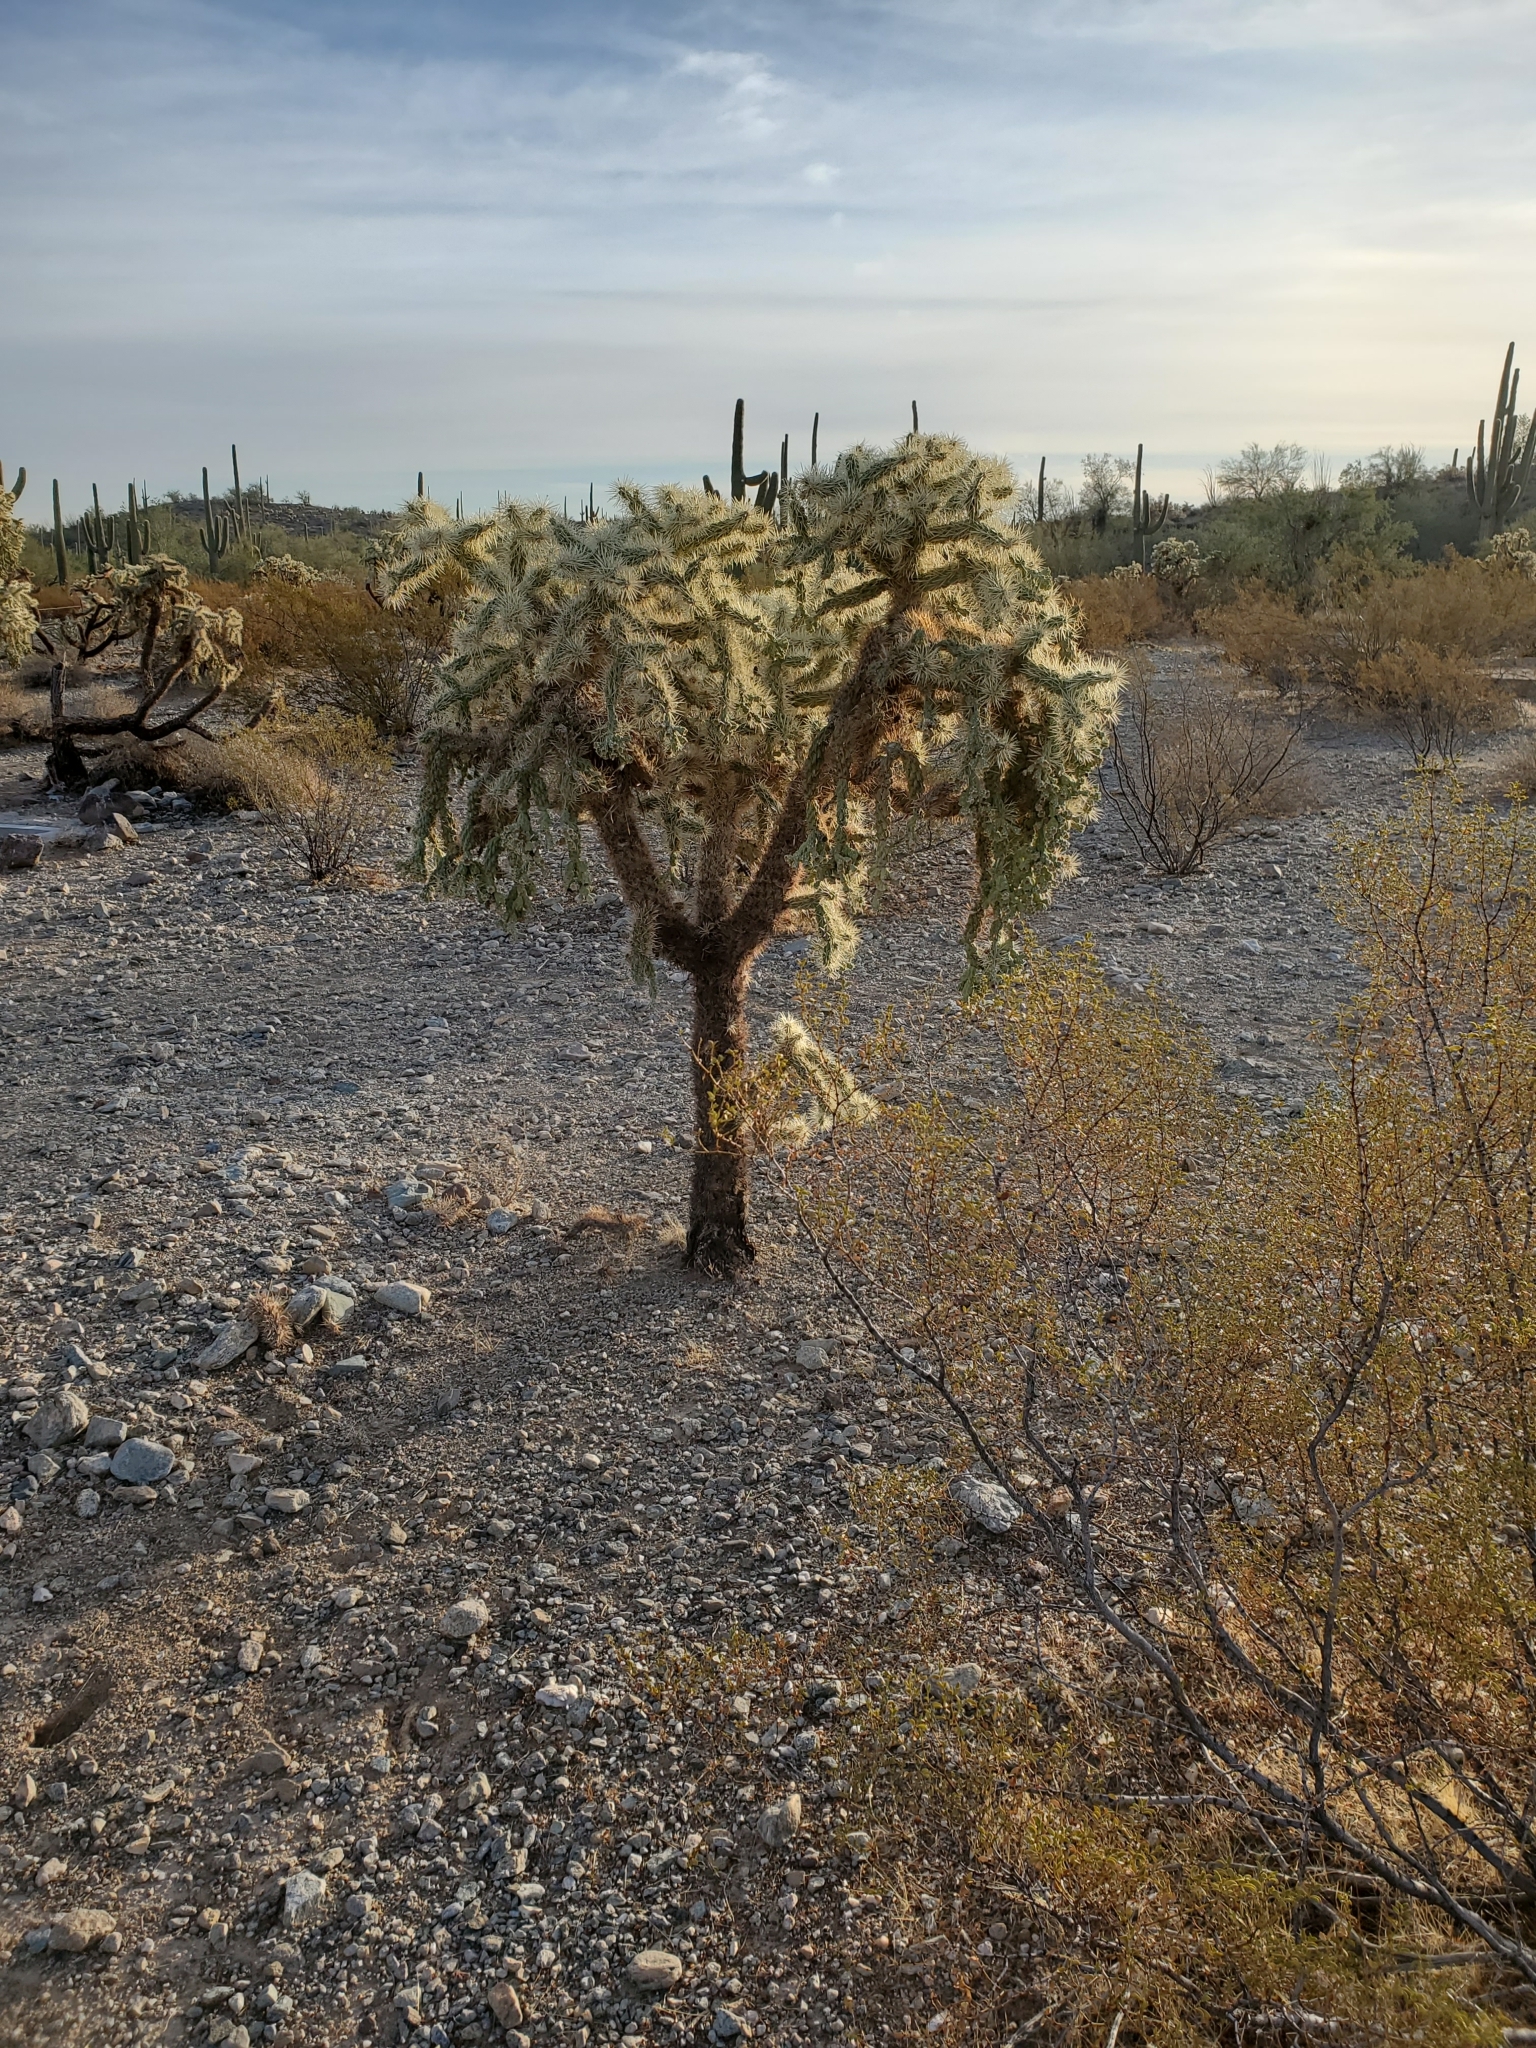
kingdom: Plantae
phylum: Tracheophyta
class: Magnoliopsida
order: Caryophyllales
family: Cactaceae
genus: Cylindropuntia
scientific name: Cylindropuntia fulgida
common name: Jumping cholla
